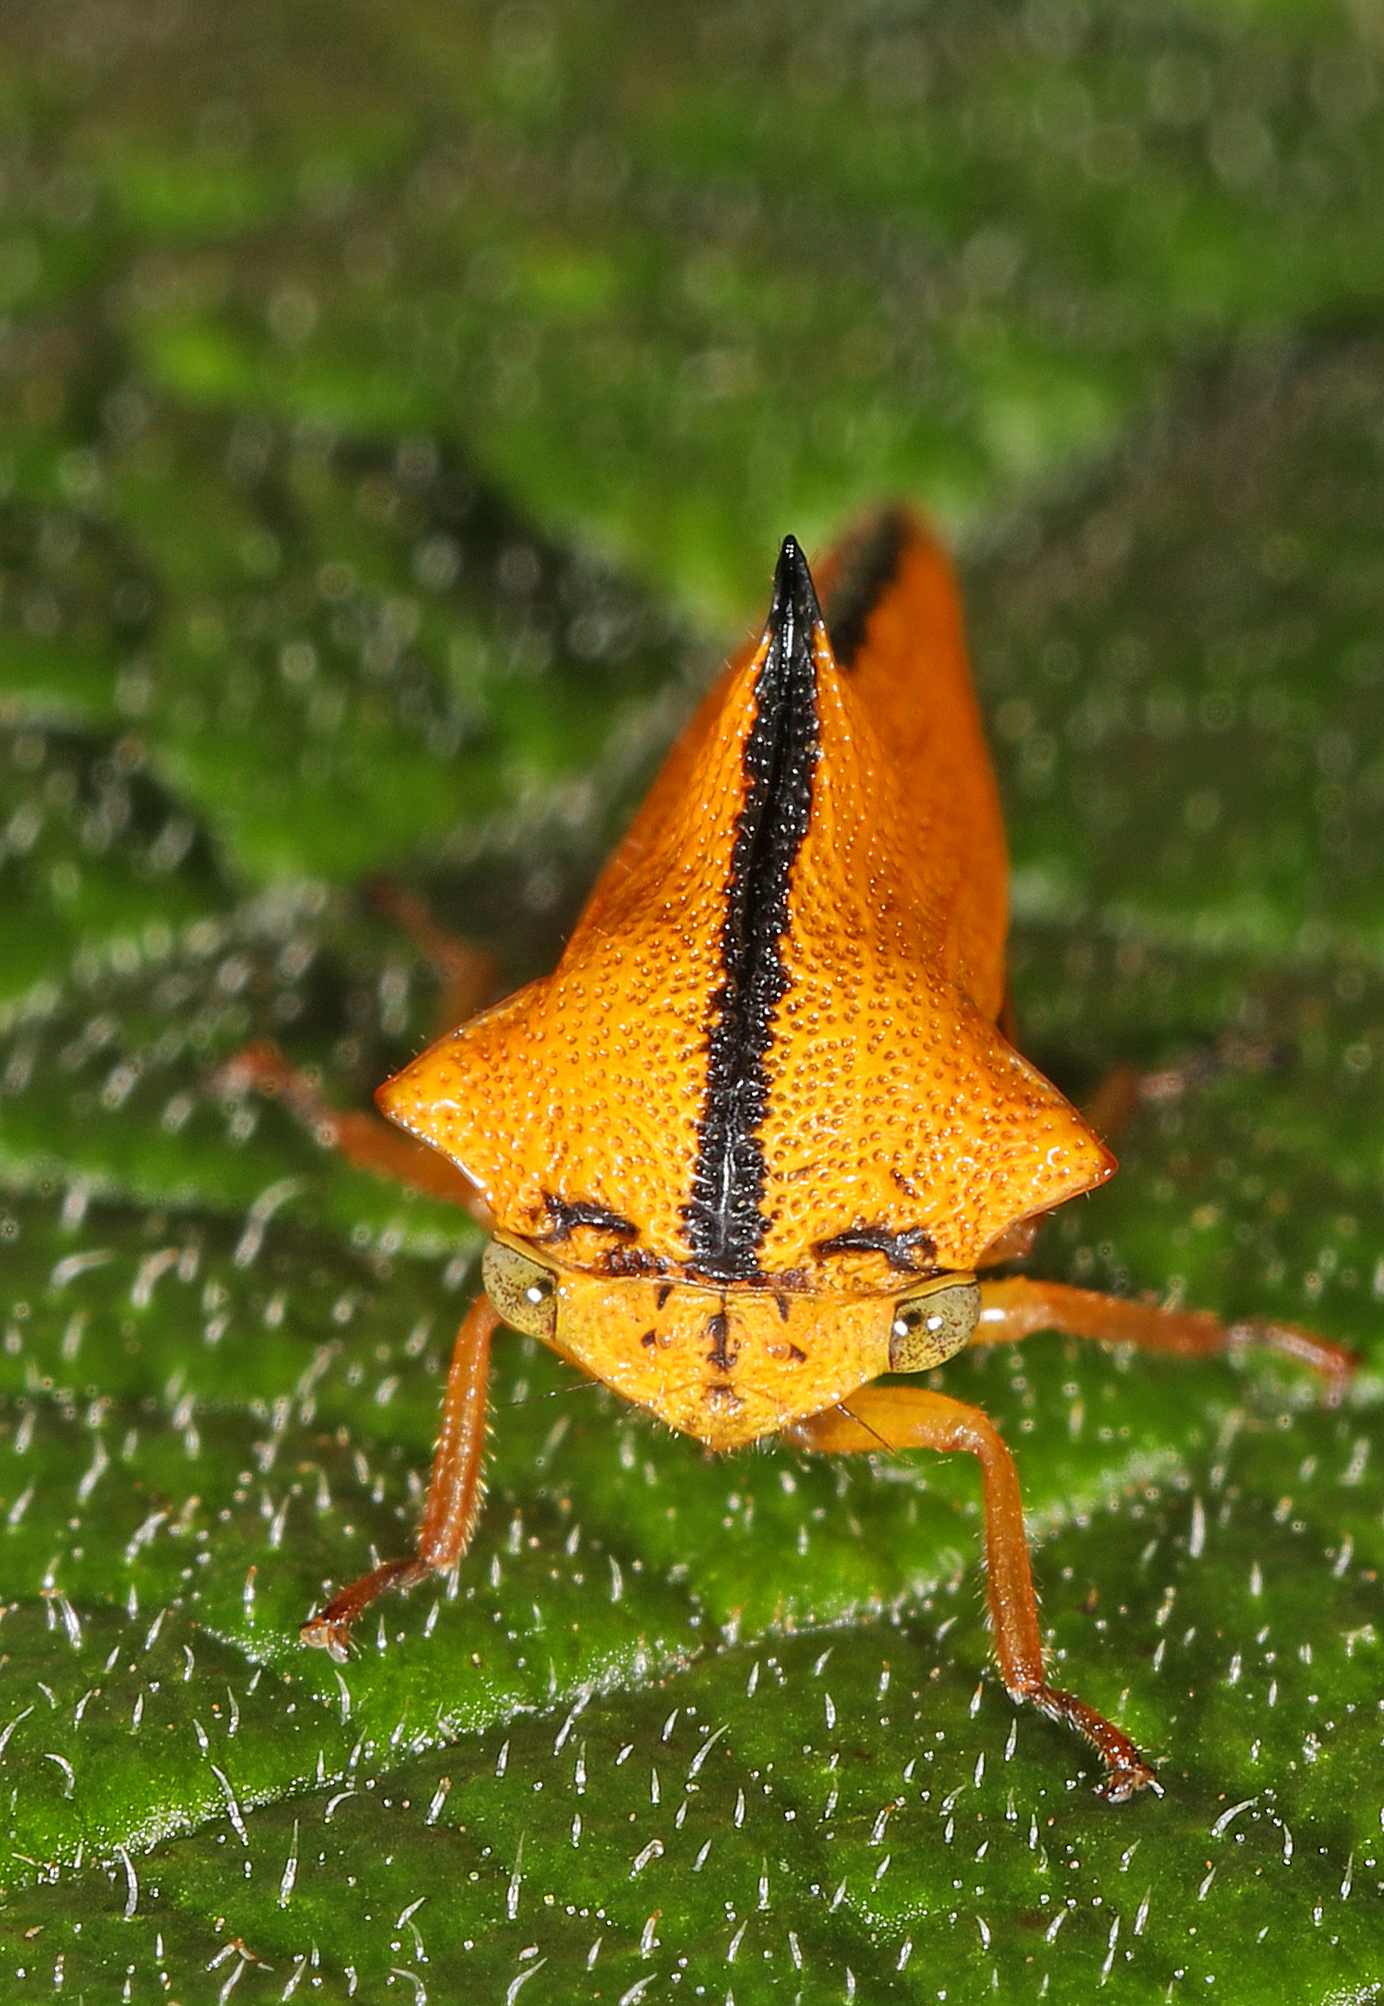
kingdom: Animalia
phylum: Arthropoda
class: Insecta
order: Hemiptera
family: Membracidae
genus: Ennya
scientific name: Ennya sobria
